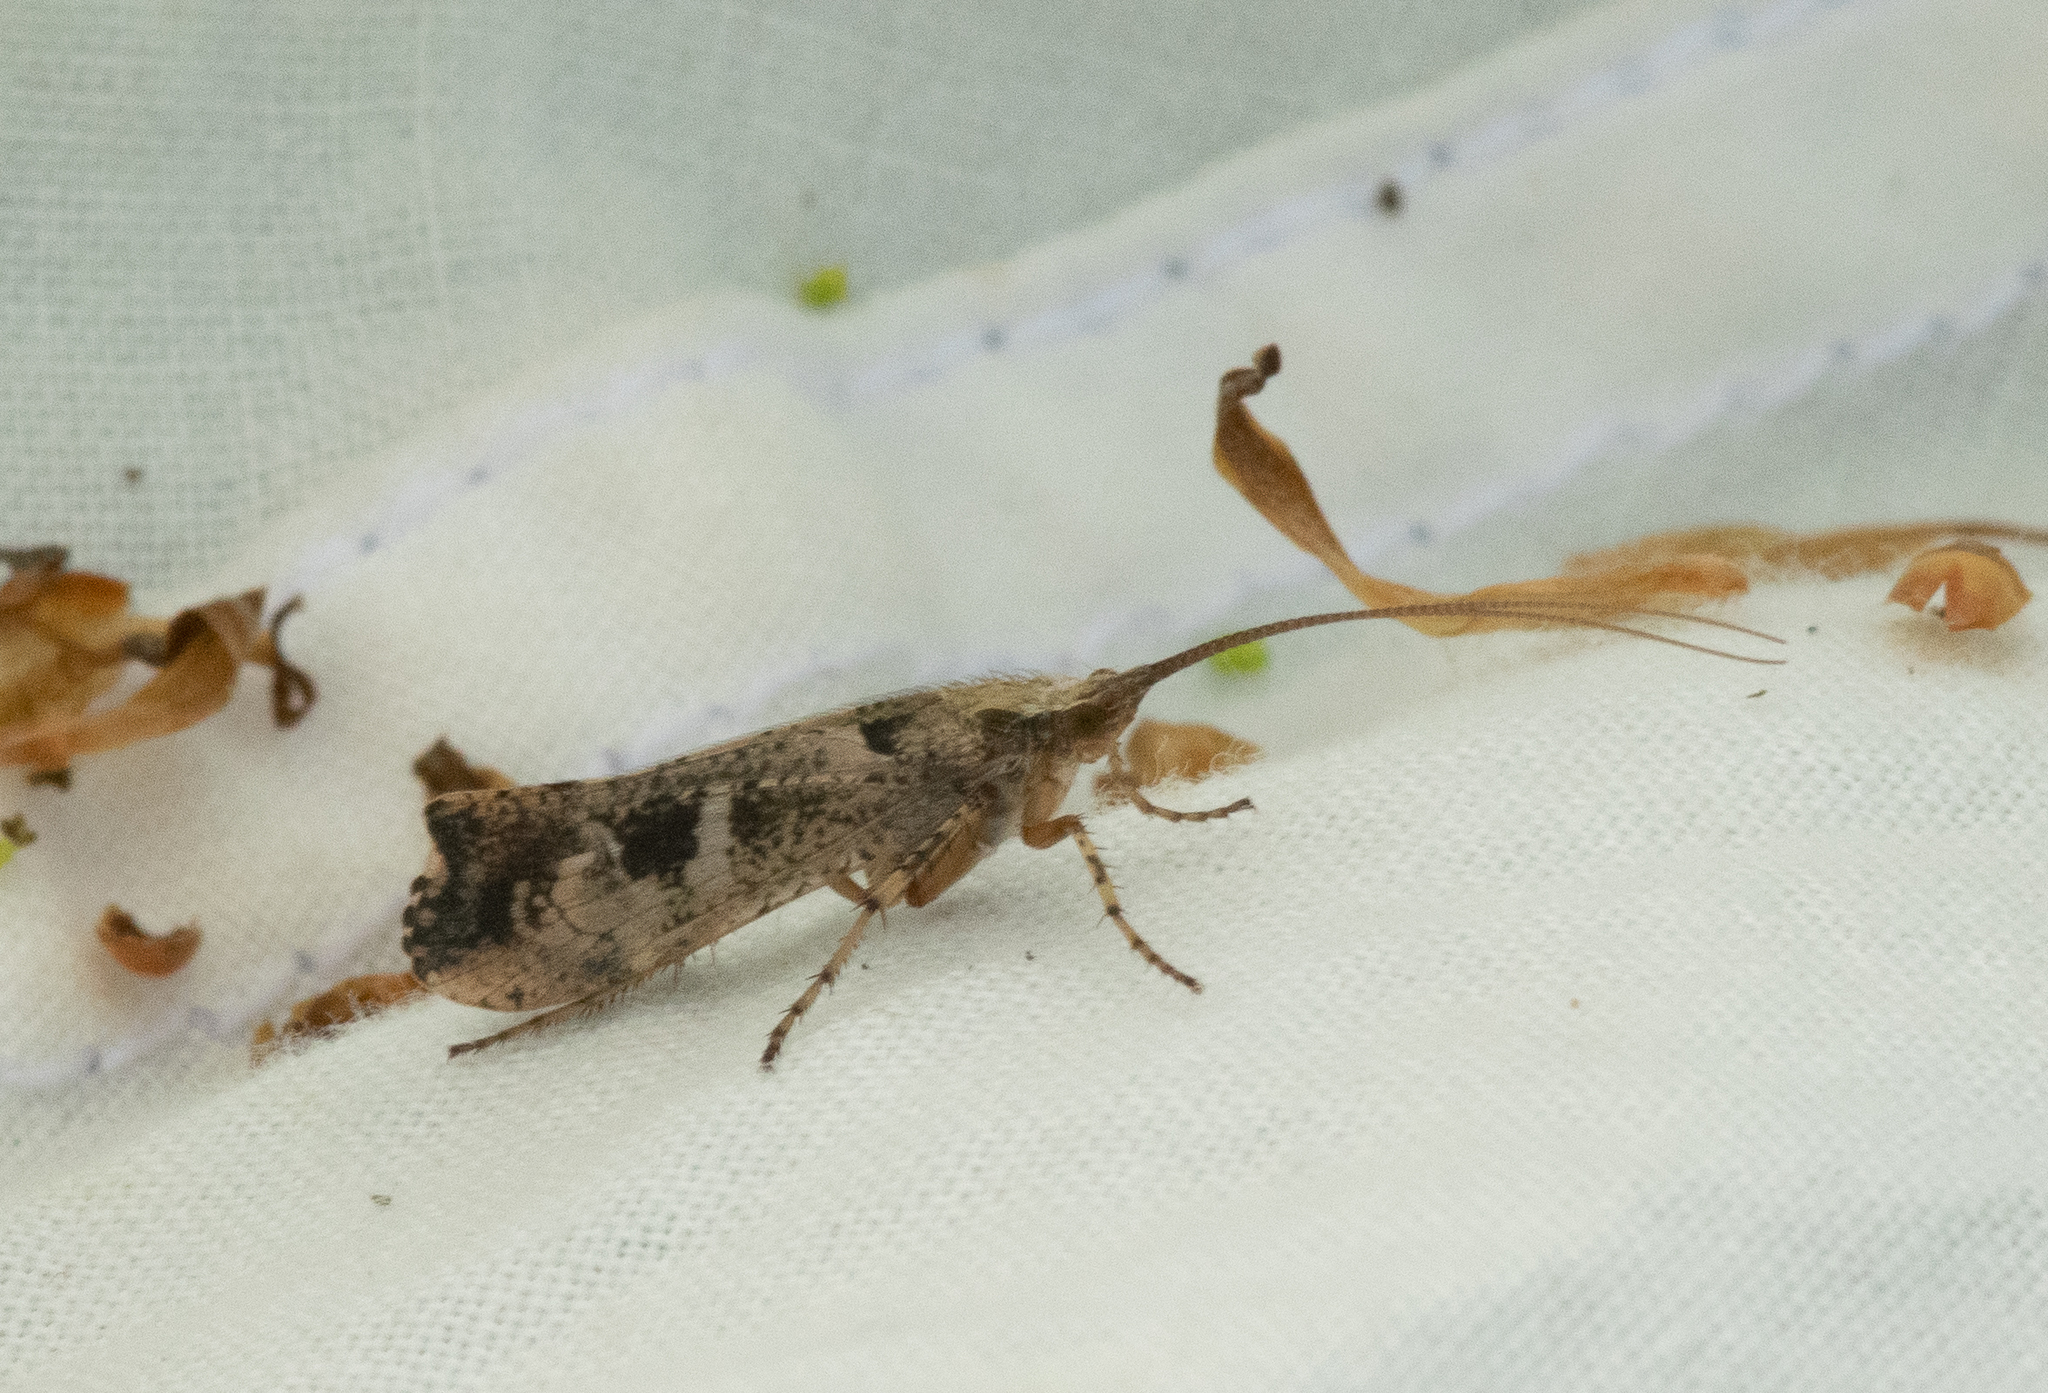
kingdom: Animalia
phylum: Arthropoda
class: Insecta
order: Trichoptera
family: Limnephilidae
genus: Glyphotaelius
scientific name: Glyphotaelius pellucidus
